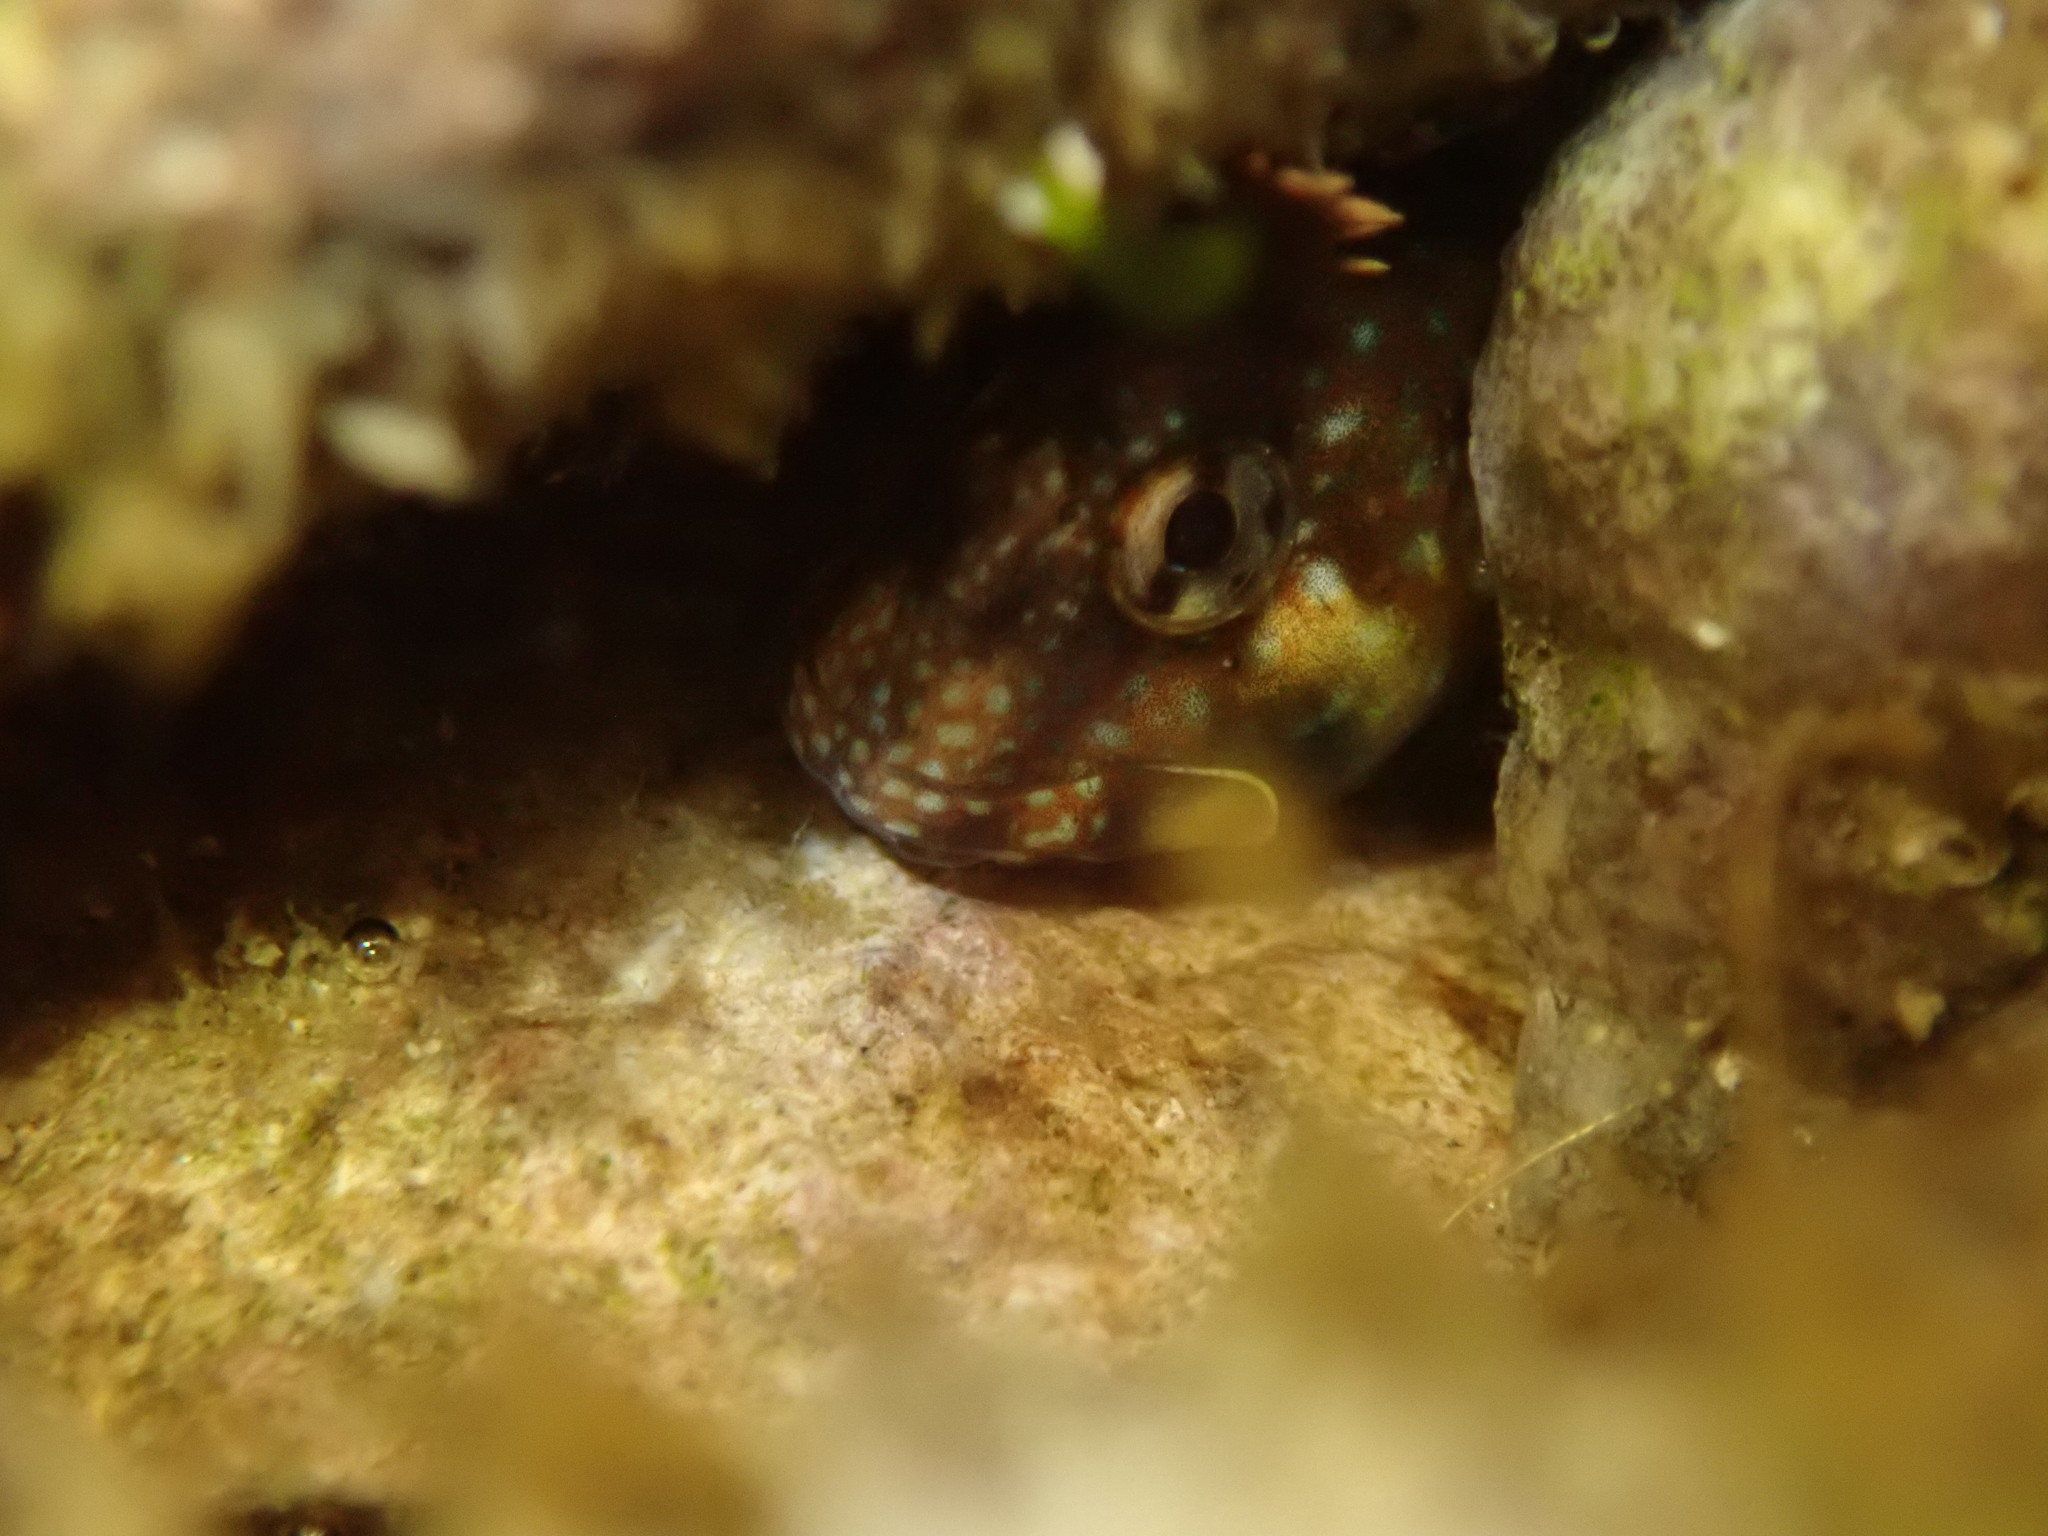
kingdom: Animalia
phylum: Chordata
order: Perciformes
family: Blenniidae
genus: Coryphoblennius
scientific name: Coryphoblennius galerita
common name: Montagu's blenny
